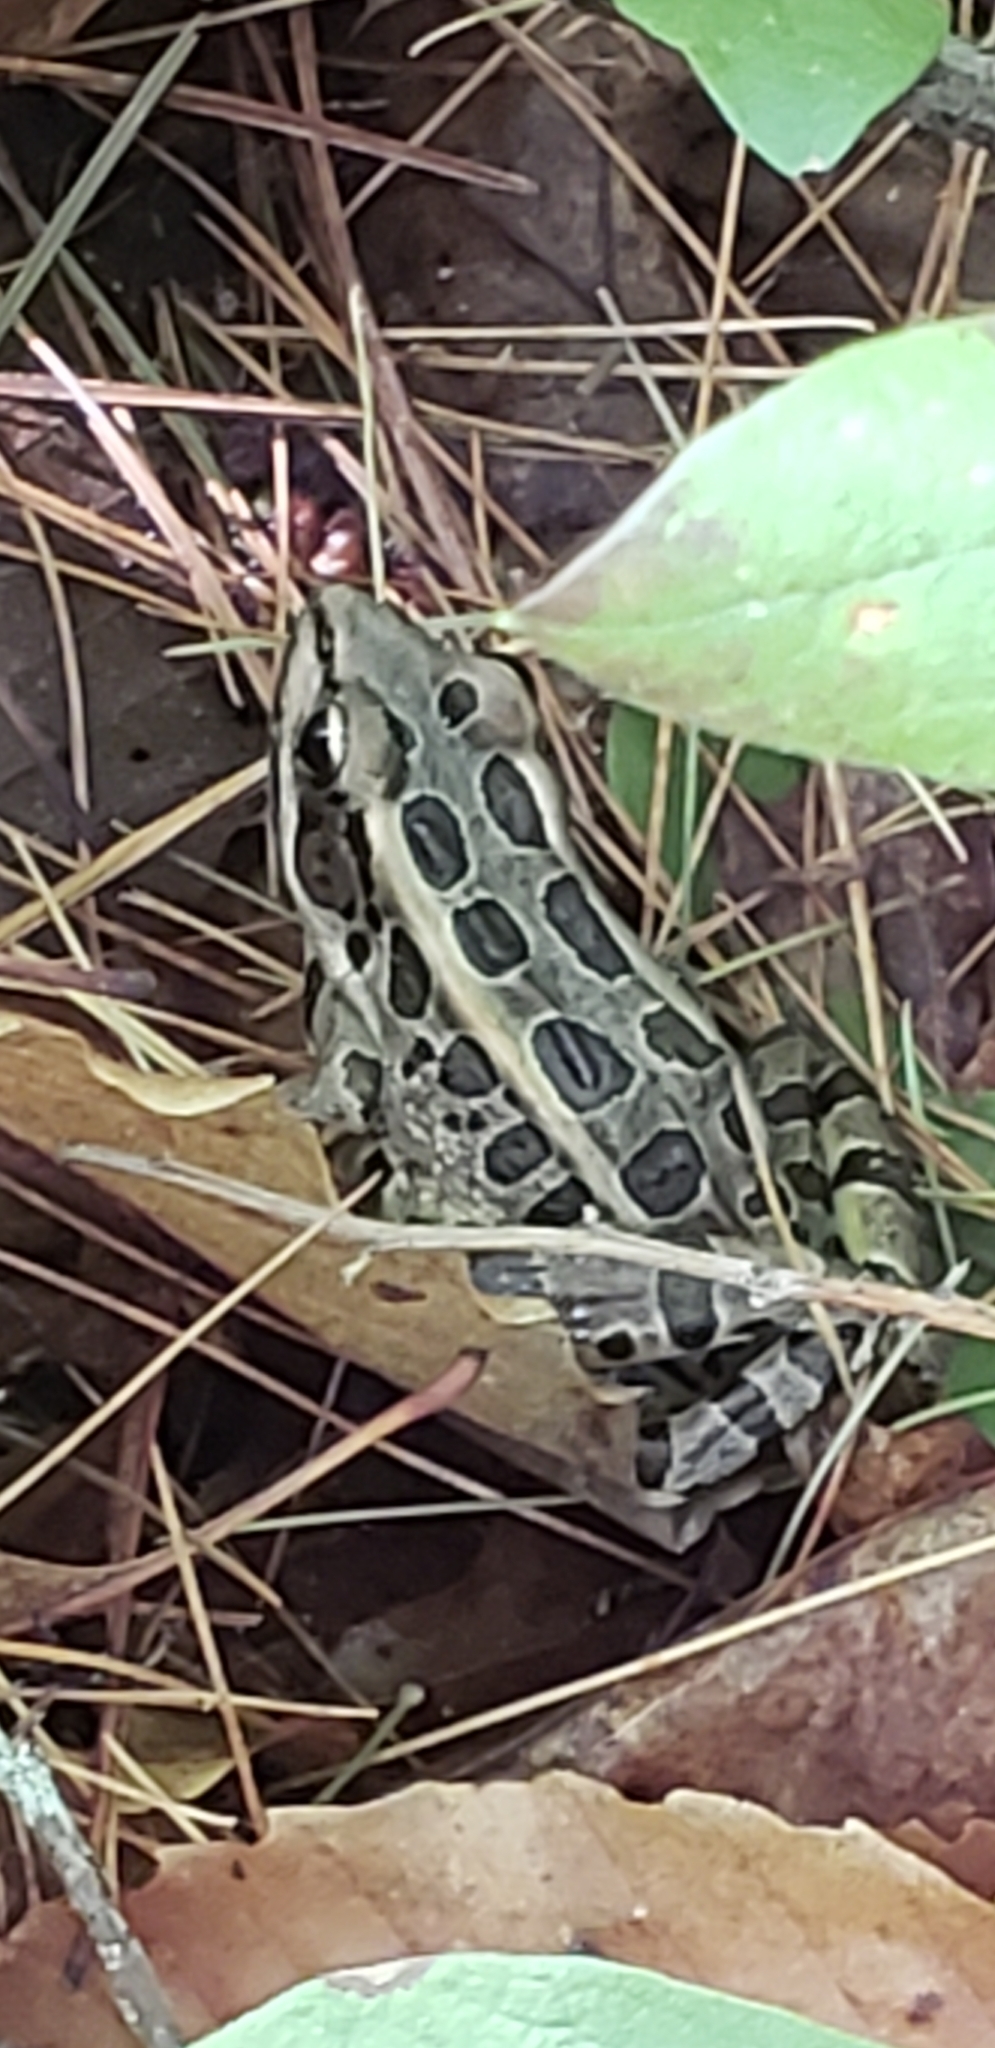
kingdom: Animalia
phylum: Chordata
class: Amphibia
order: Anura
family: Ranidae
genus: Lithobates
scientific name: Lithobates palustris
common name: Pickerel frog
